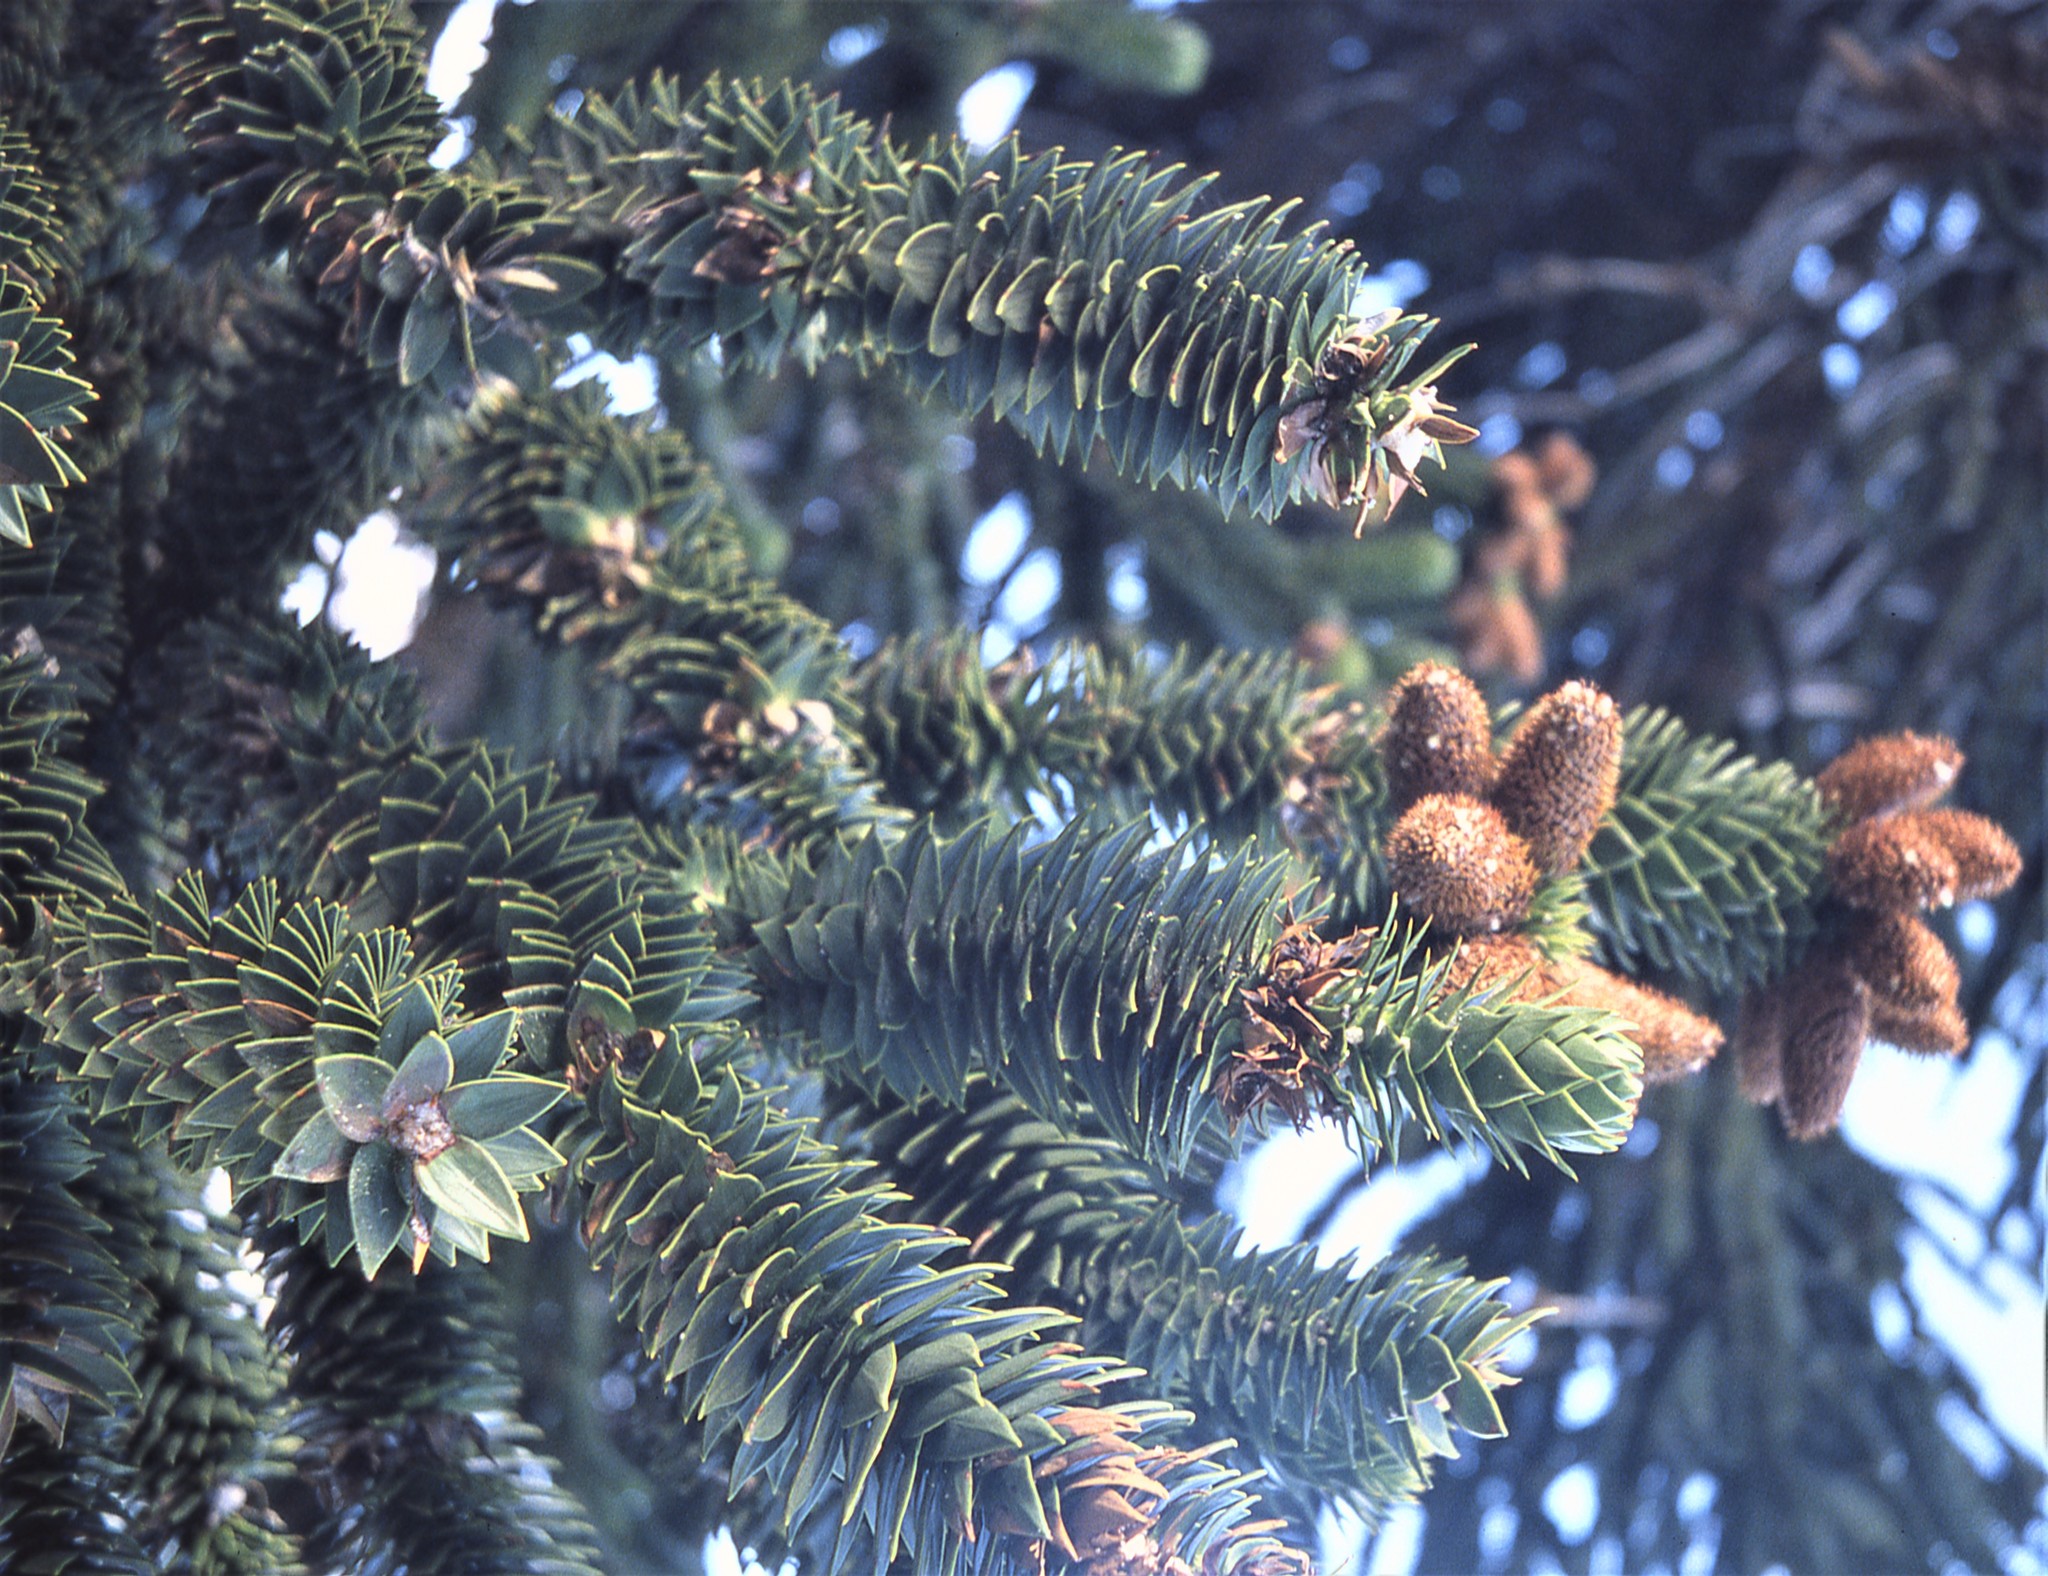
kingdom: Plantae
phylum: Tracheophyta
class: Pinopsida
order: Pinales
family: Araucariaceae
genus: Araucaria
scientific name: Araucaria araucana
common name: Monkey-puzzle
